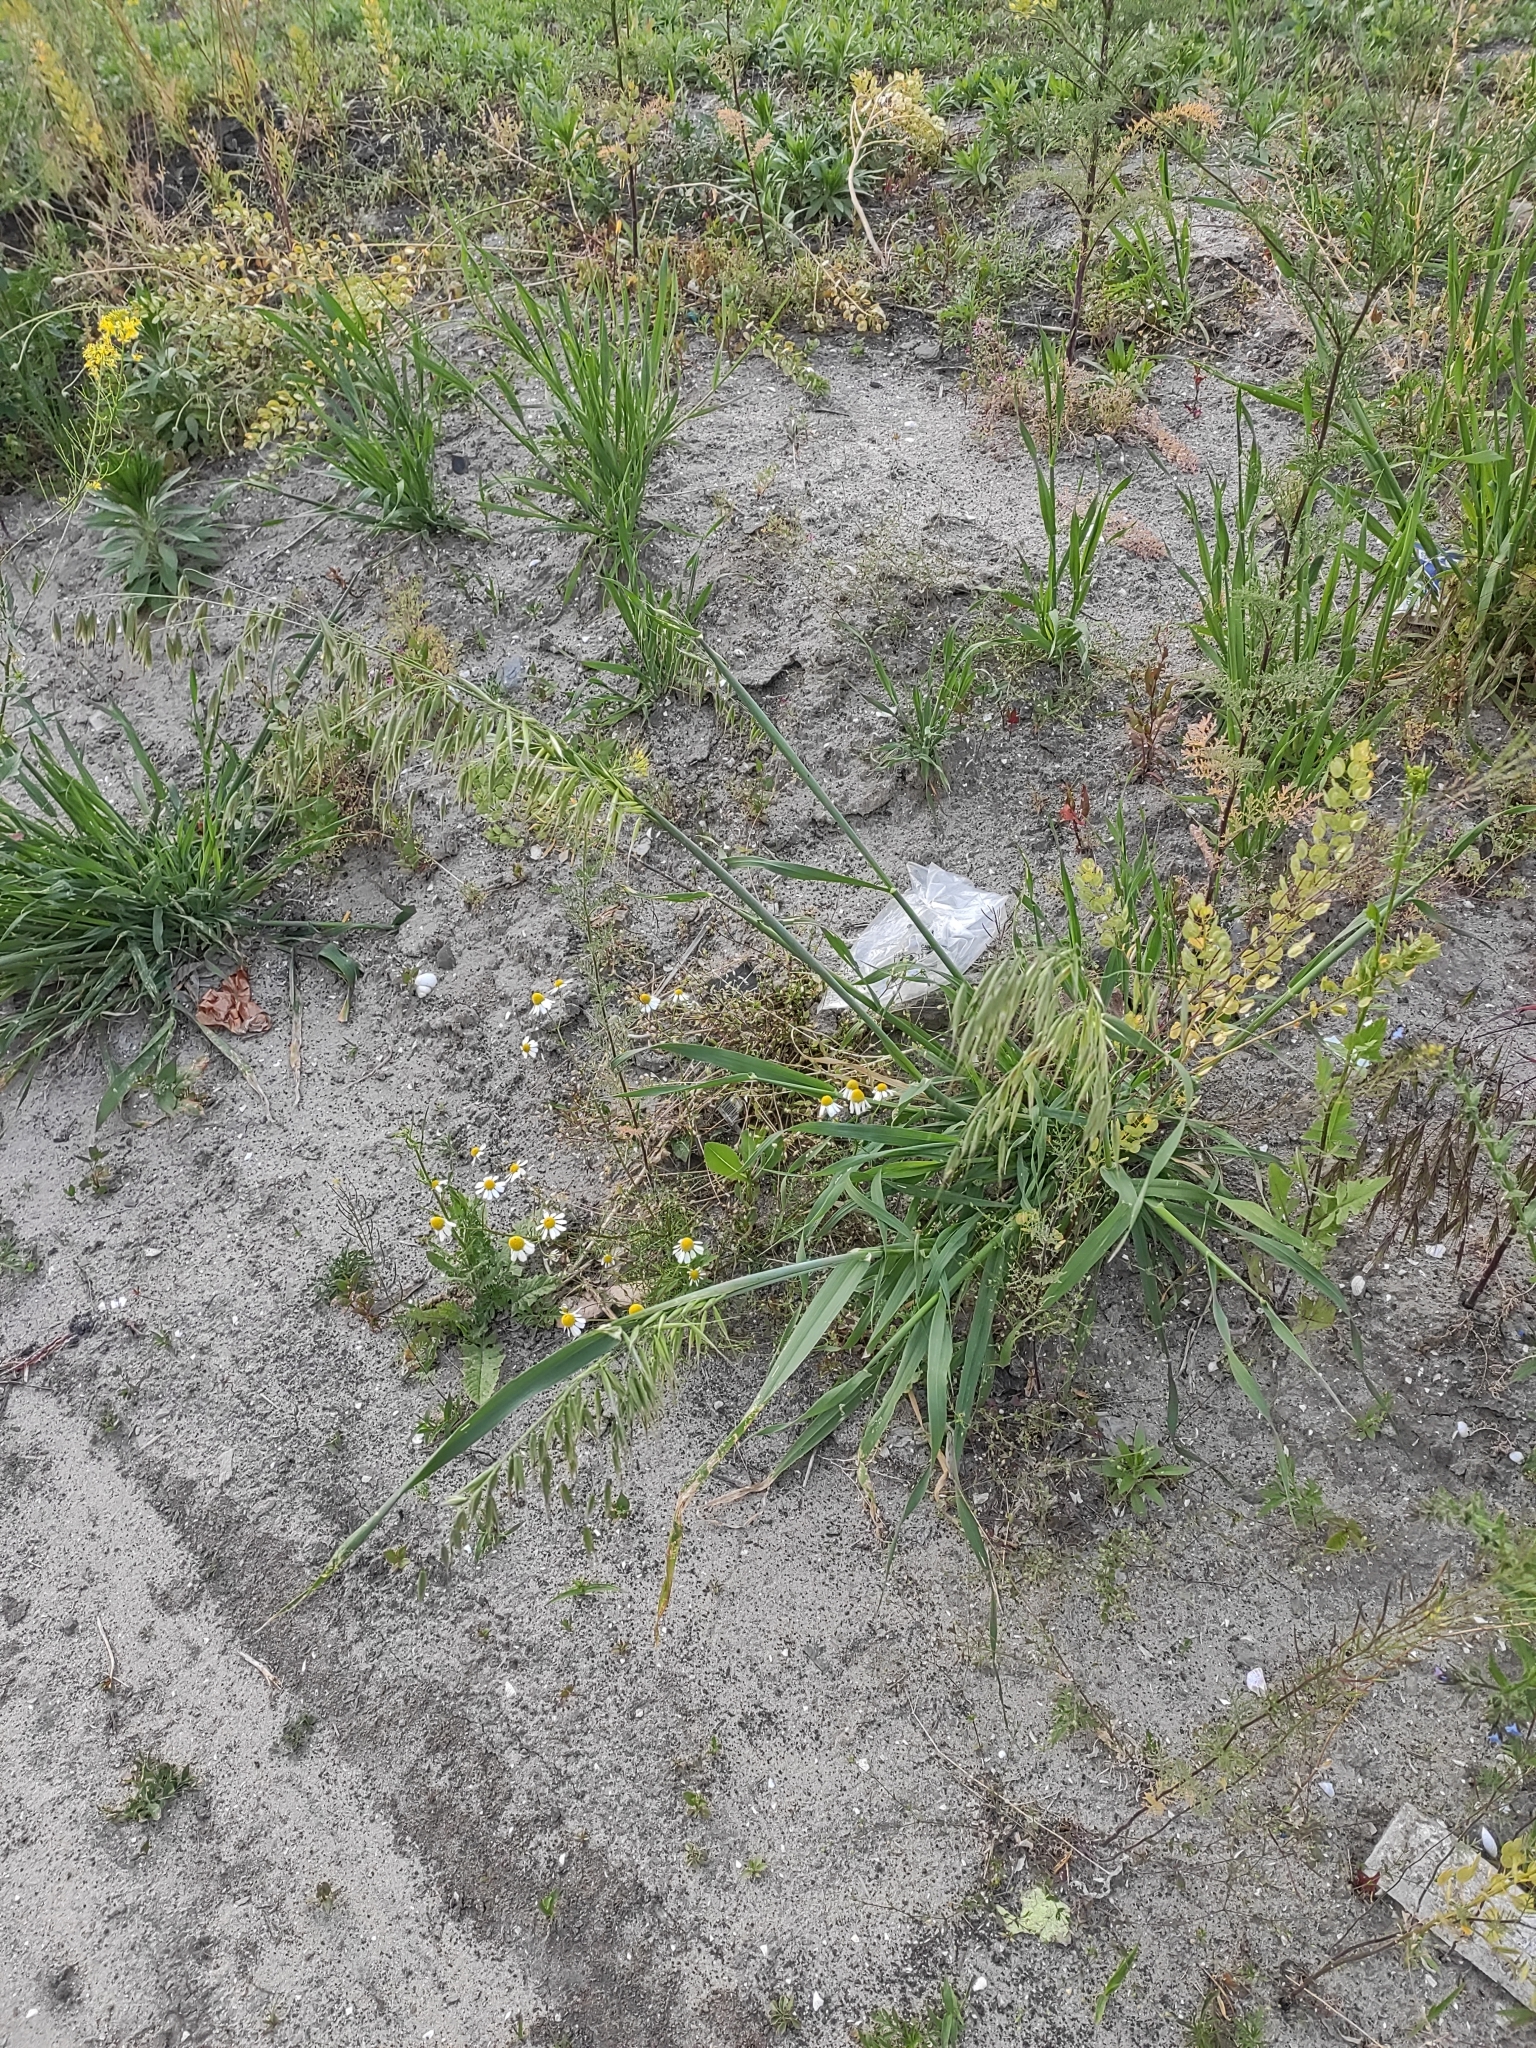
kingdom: Plantae
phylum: Tracheophyta
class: Liliopsida
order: Poales
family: Poaceae
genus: Avena
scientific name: Avena fatua
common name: Wild oat
